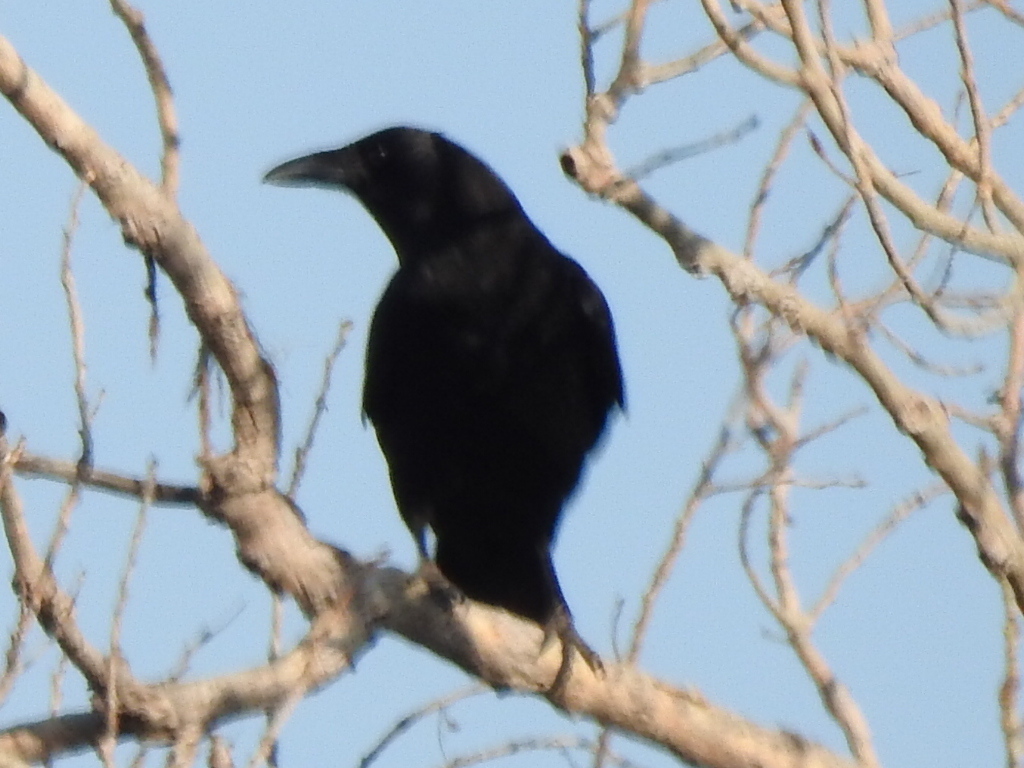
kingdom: Animalia
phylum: Chordata
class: Aves
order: Passeriformes
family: Corvidae
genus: Corvus
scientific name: Corvus brachyrhynchos
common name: American crow
